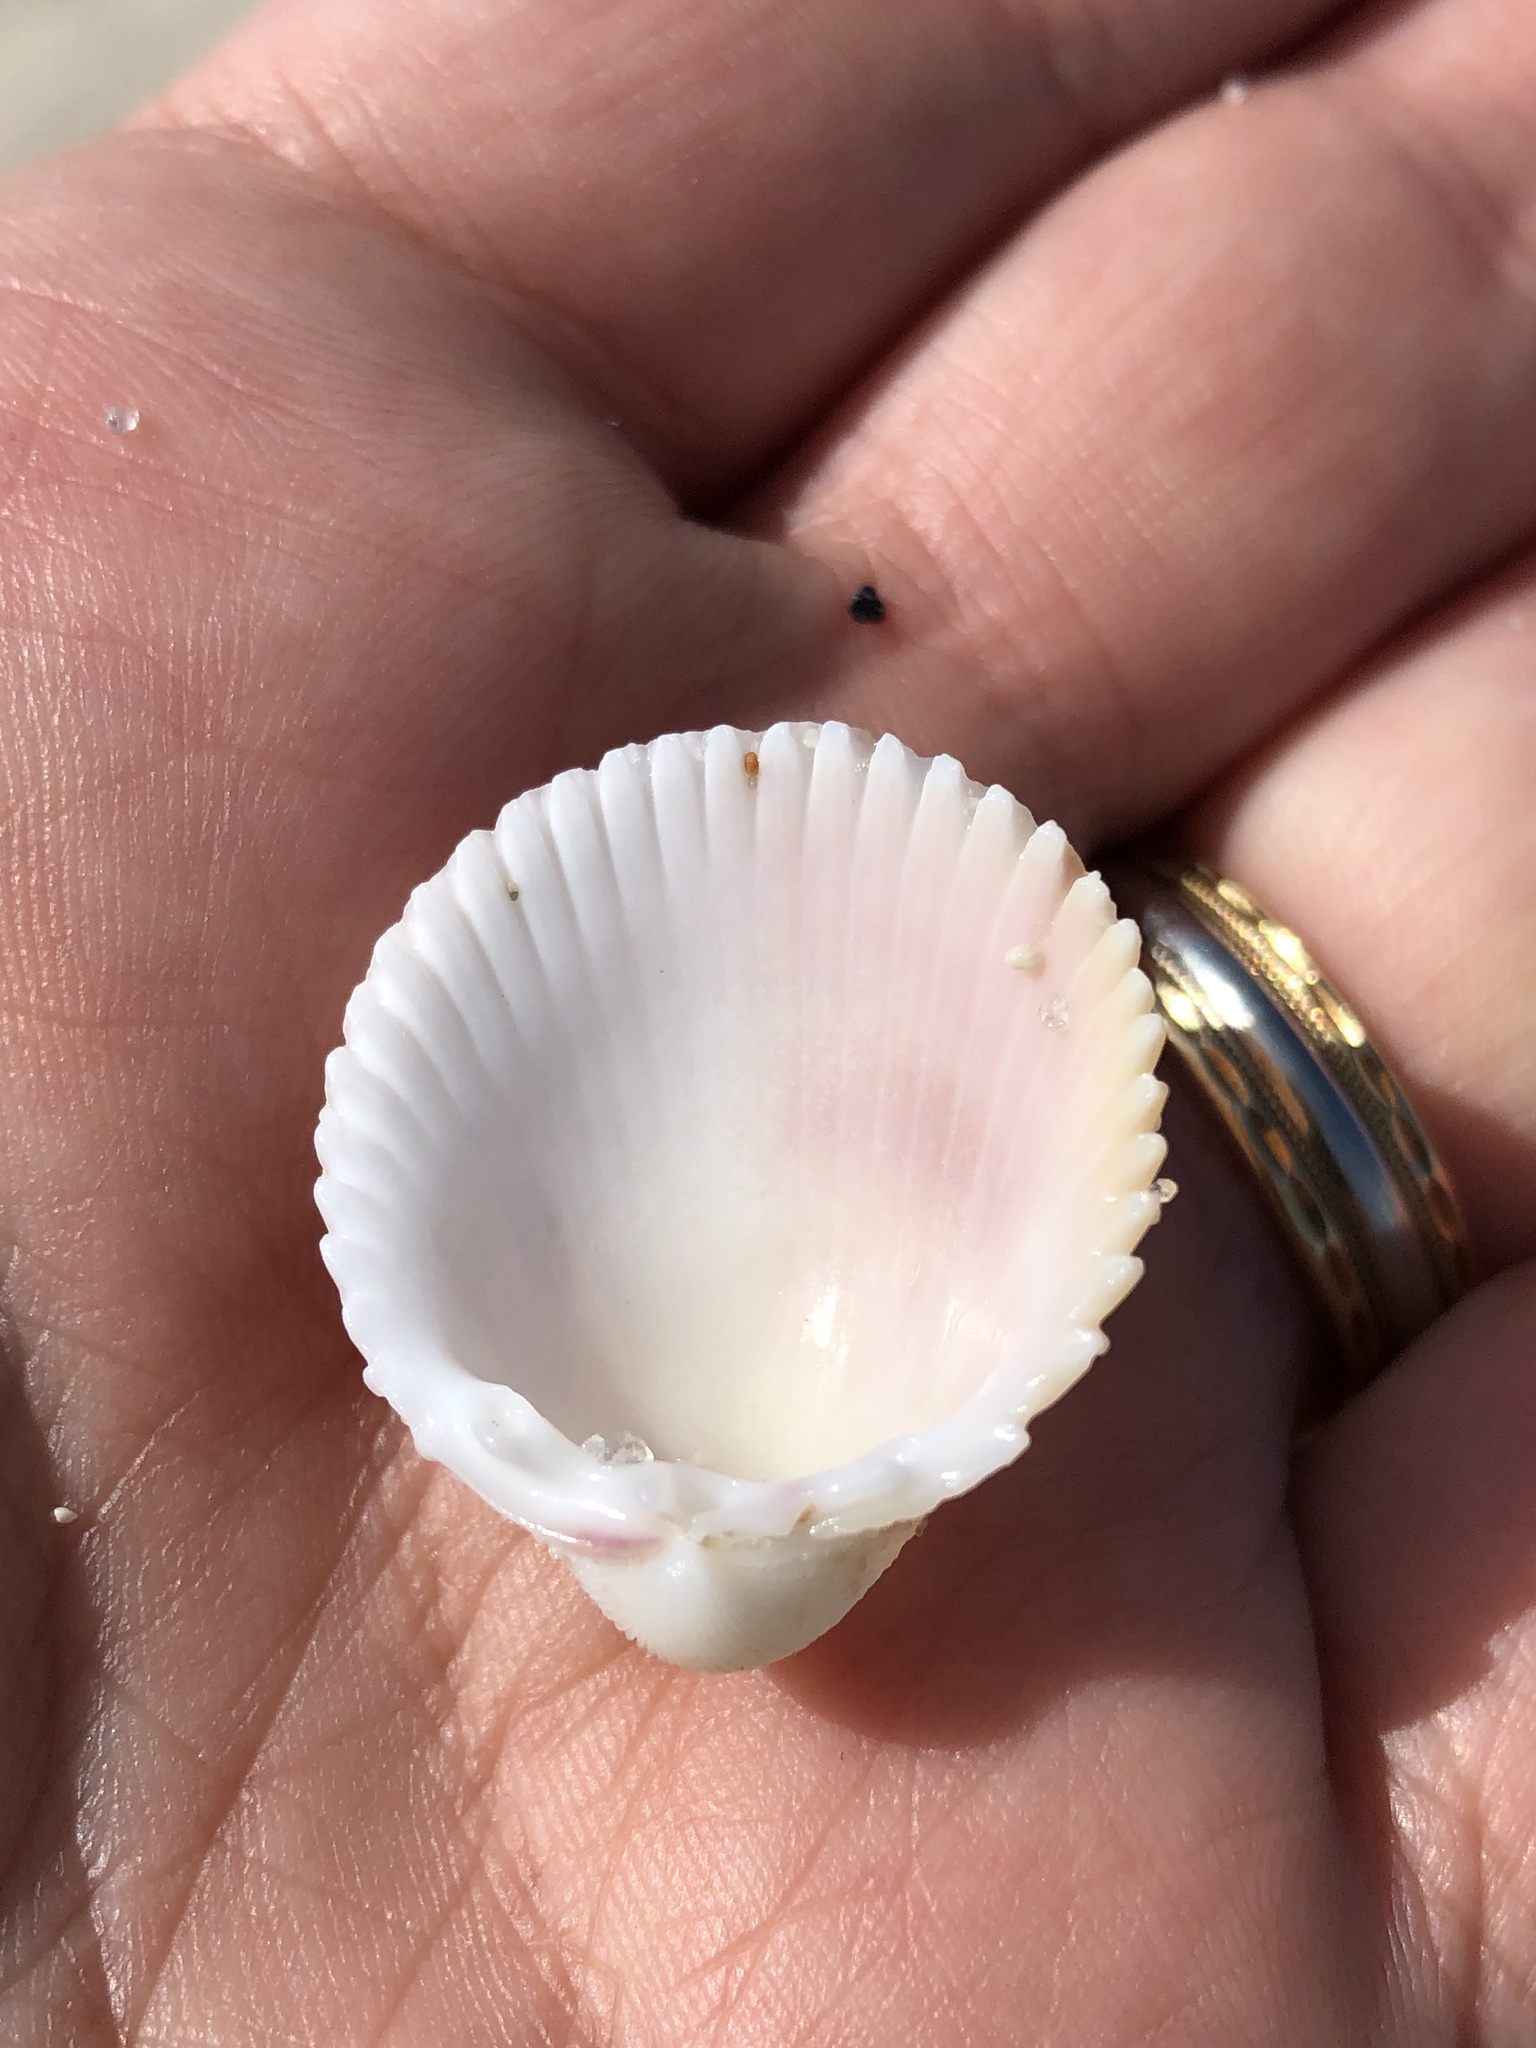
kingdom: Animalia
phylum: Mollusca
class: Bivalvia
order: Cardiida
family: Cardiidae
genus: Trachycardium
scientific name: Trachycardium egmontianum
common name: Florida pricklycockle
